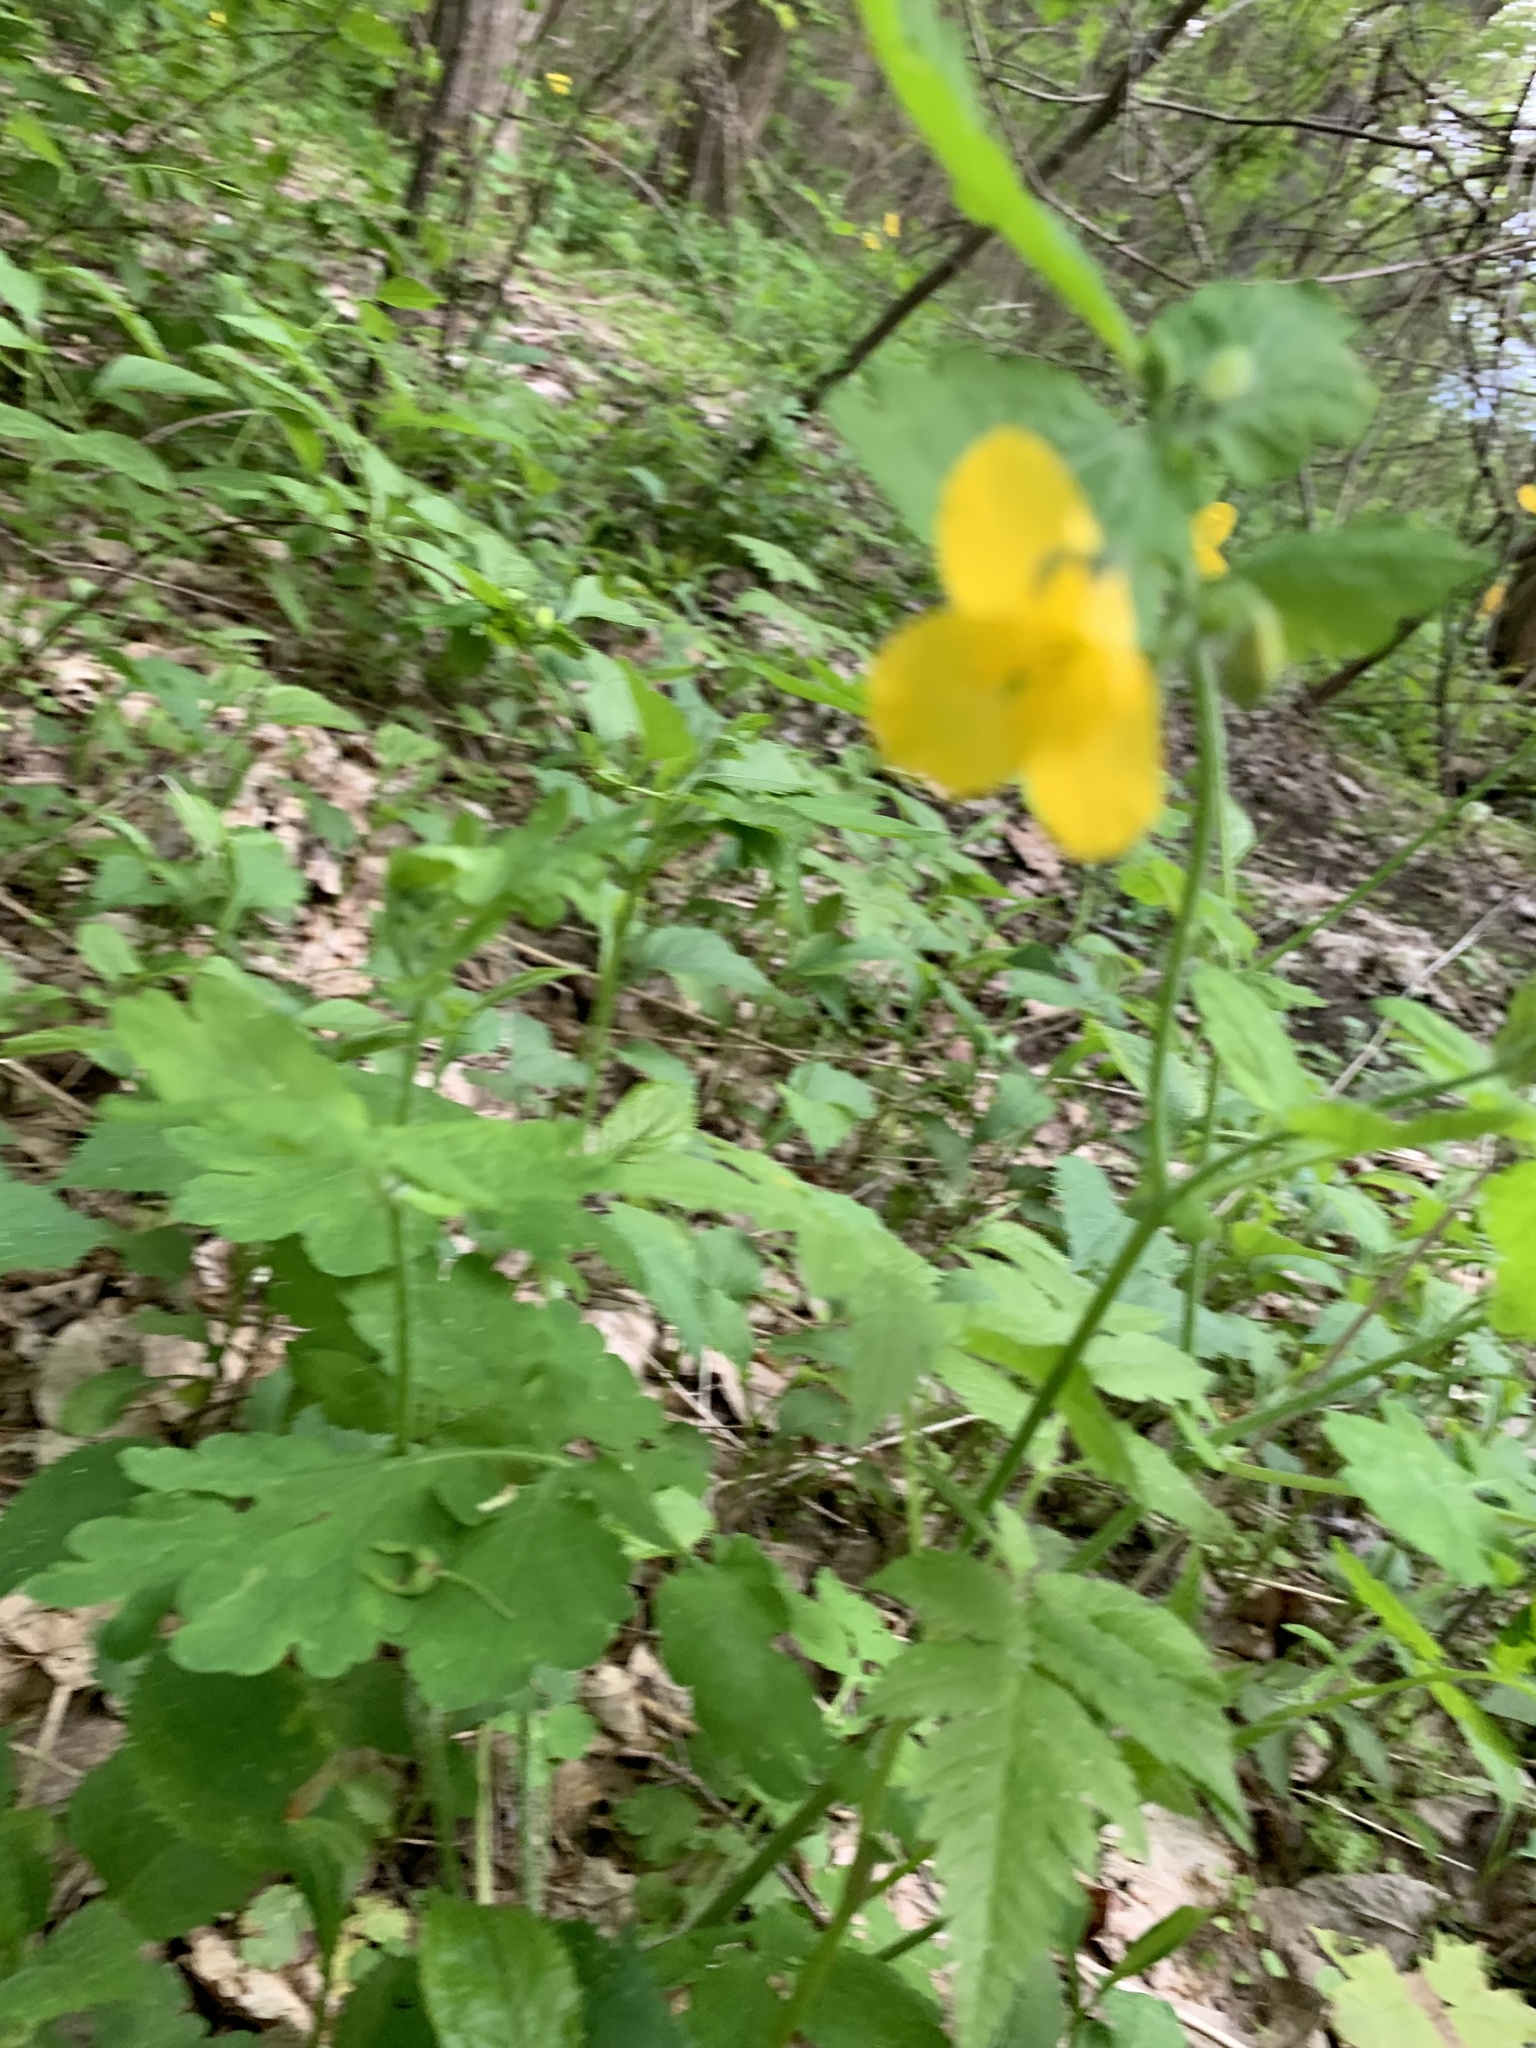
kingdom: Plantae
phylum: Tracheophyta
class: Magnoliopsida
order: Ranunculales
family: Papaveraceae
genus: Chelidonium
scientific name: Chelidonium majus
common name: Greater celandine
